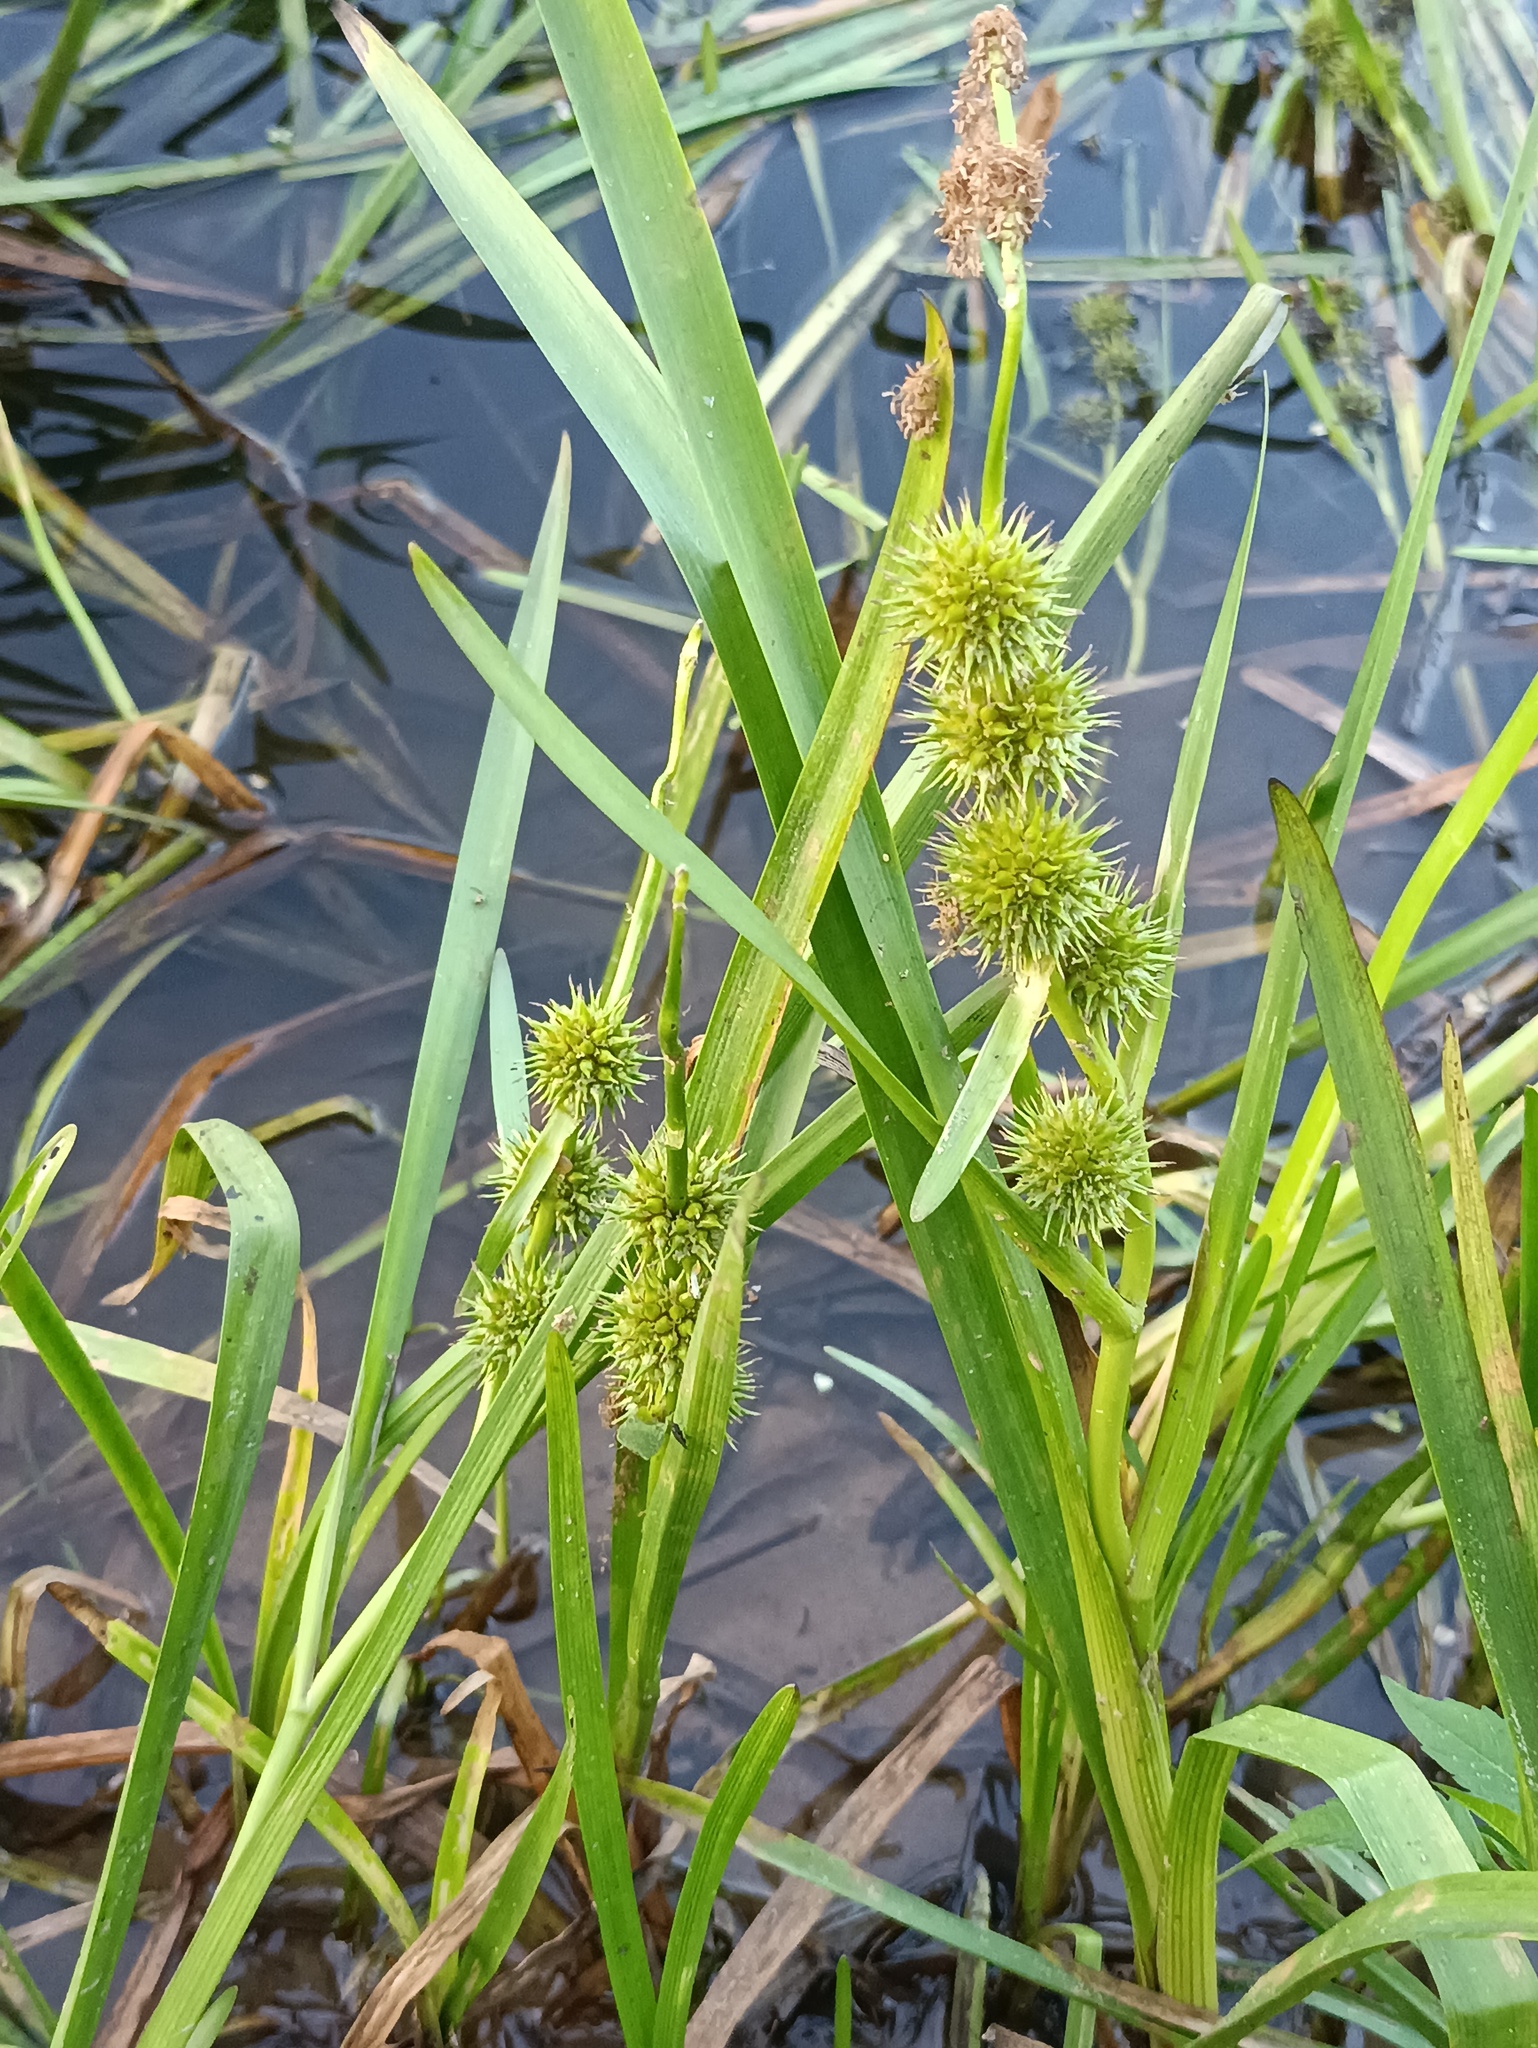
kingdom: Plantae
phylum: Tracheophyta
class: Liliopsida
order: Poales
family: Typhaceae
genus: Sparganium
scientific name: Sparganium emersum
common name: Unbranched bur-reed
